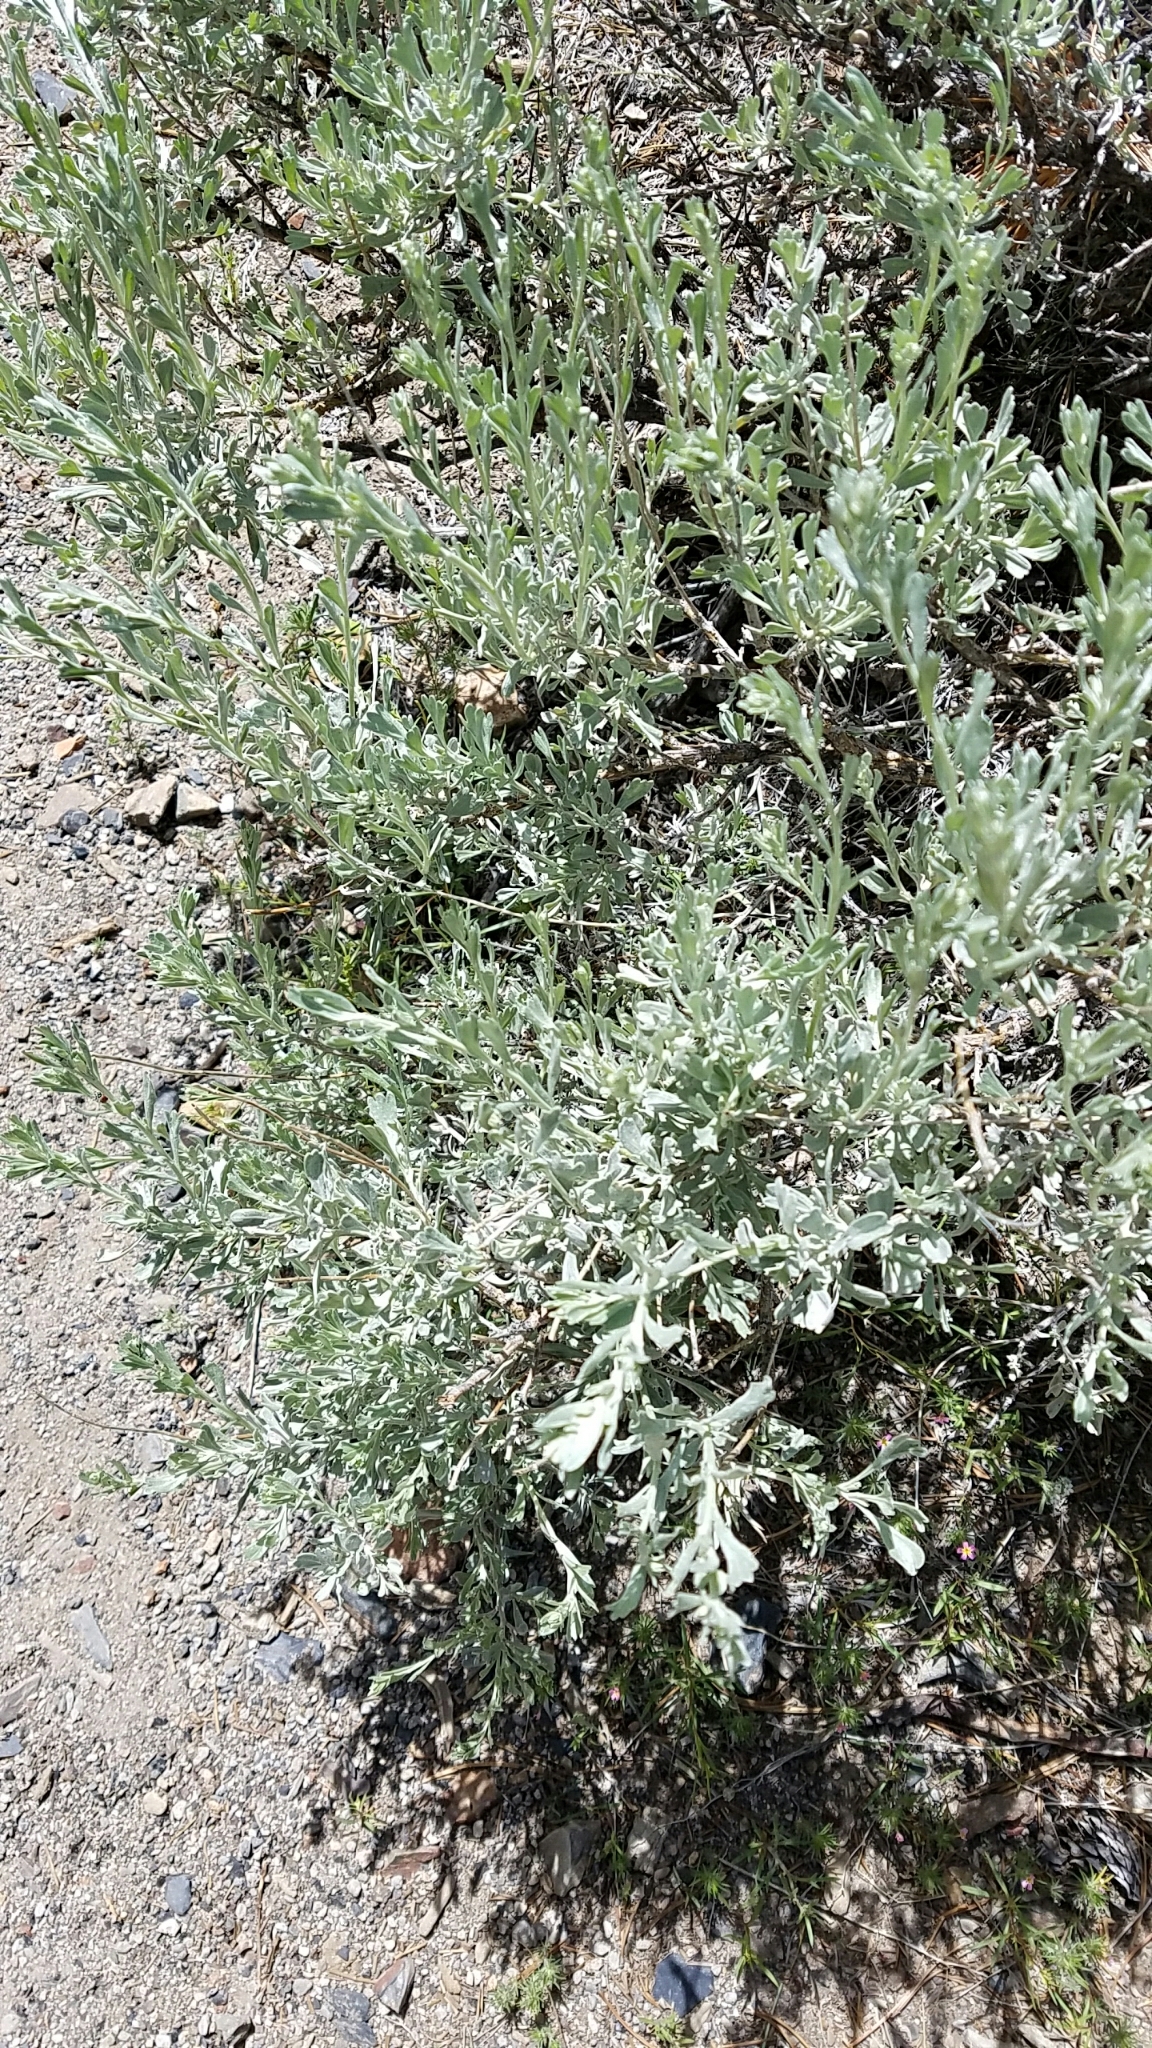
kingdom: Plantae
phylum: Tracheophyta
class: Magnoliopsida
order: Asterales
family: Asteraceae
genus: Artemisia
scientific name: Artemisia tridentata
